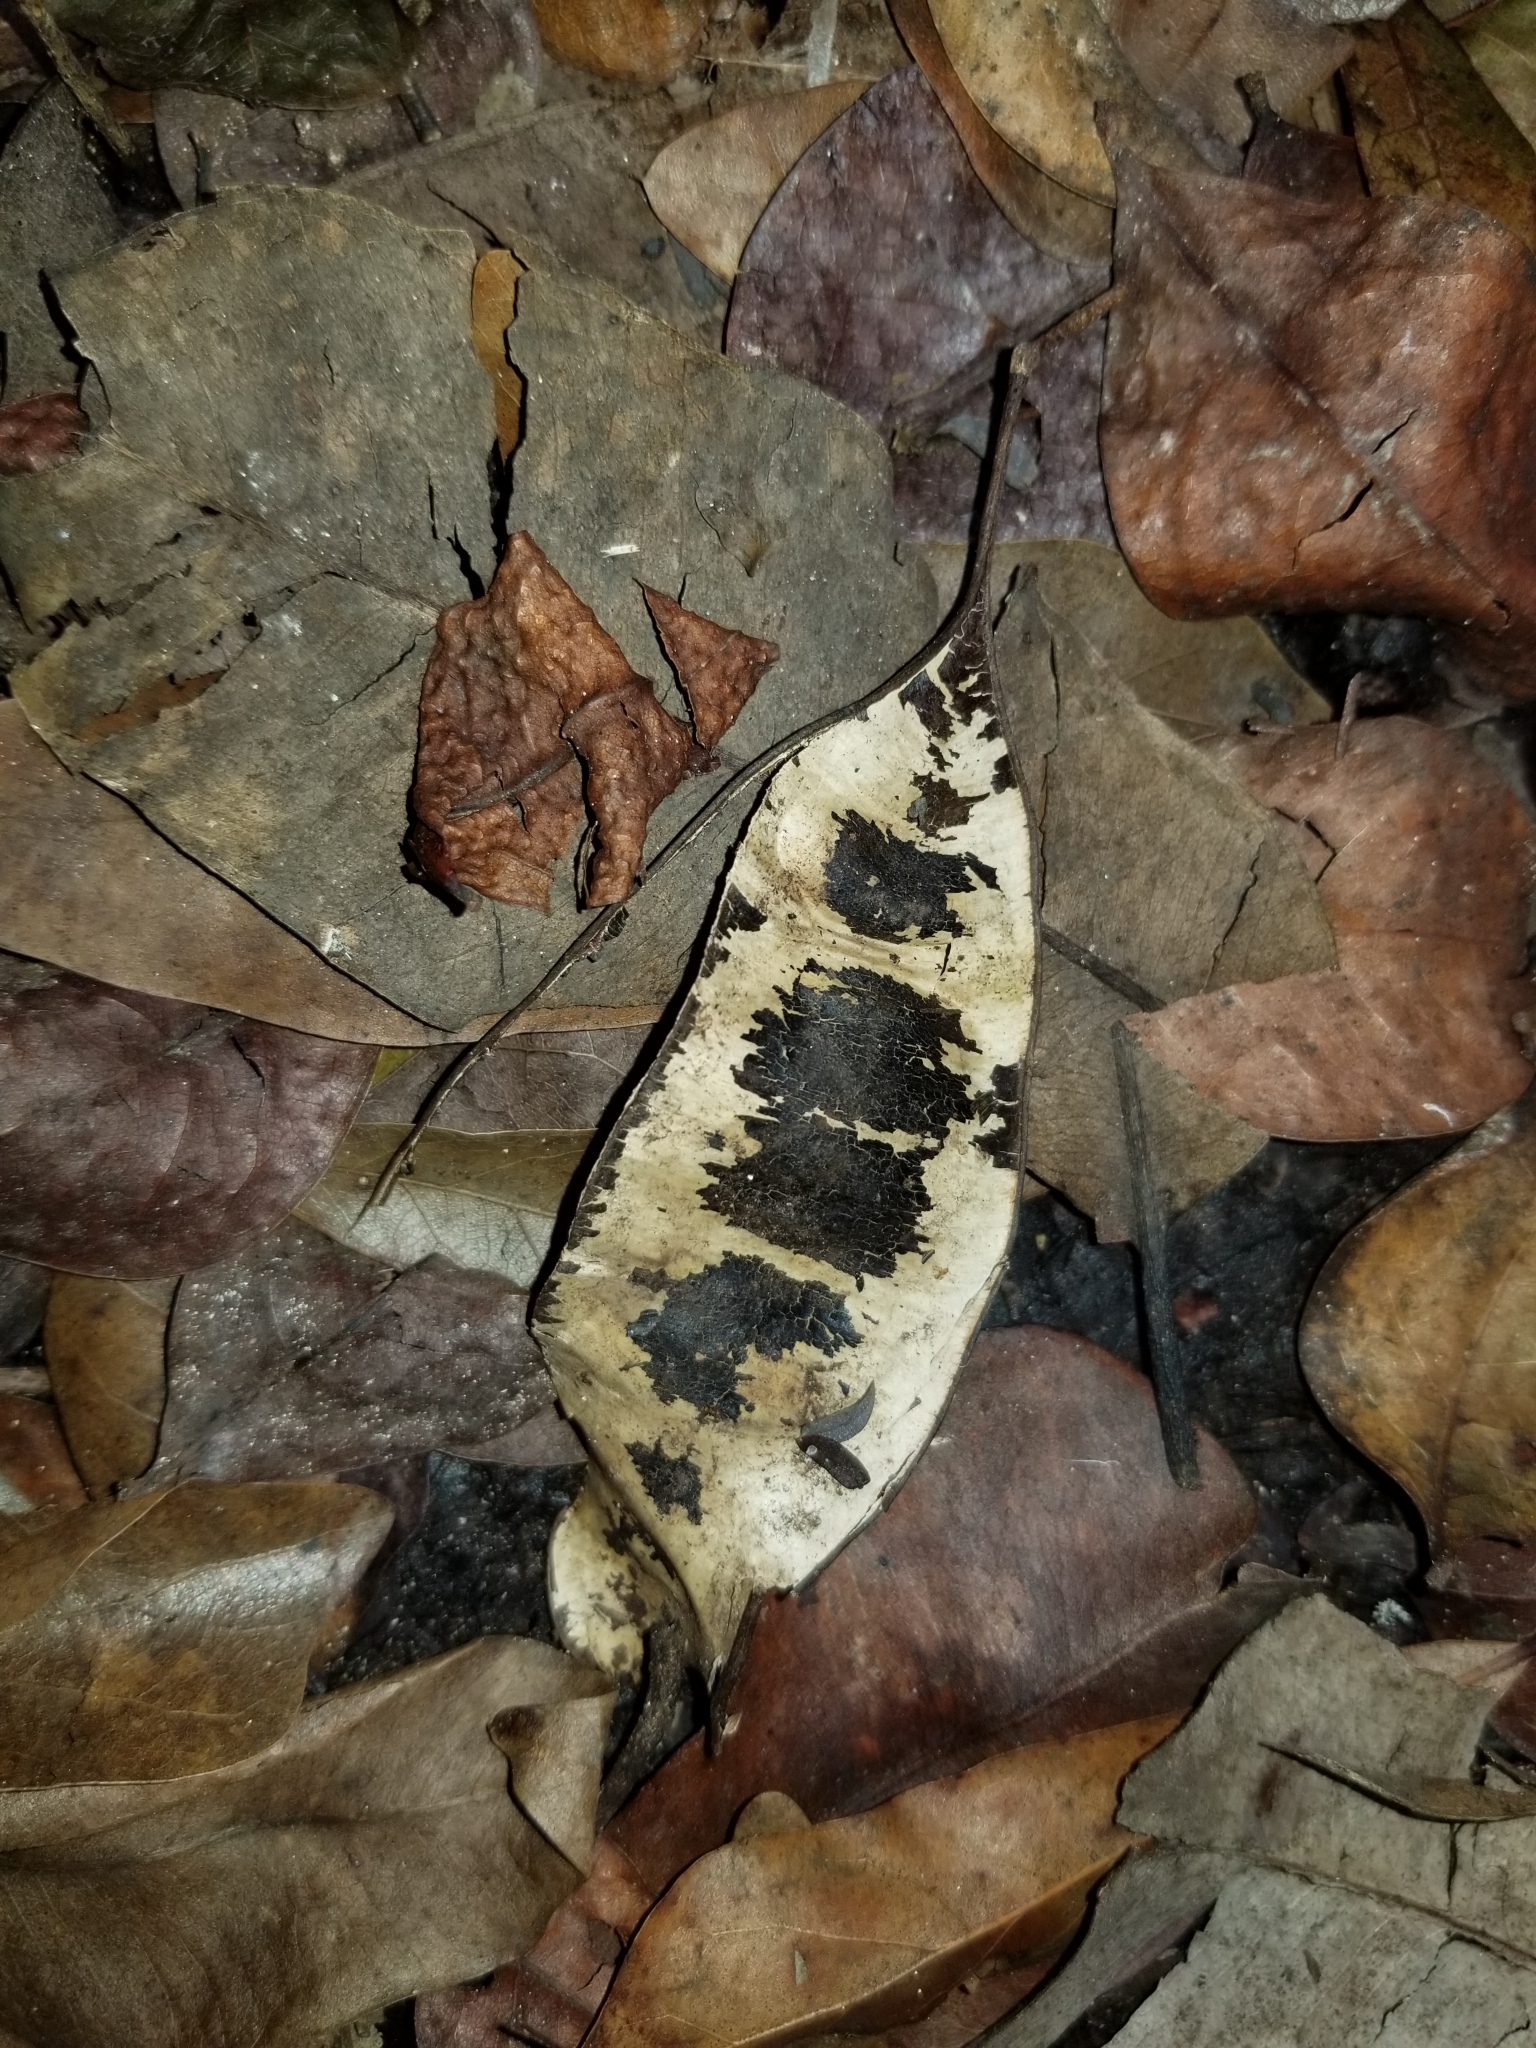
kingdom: Plantae
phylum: Tracheophyta
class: Magnoliopsida
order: Fabales
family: Fabaceae
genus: Lysiloma
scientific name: Lysiloma latisiliquum
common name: Wild tamarind
